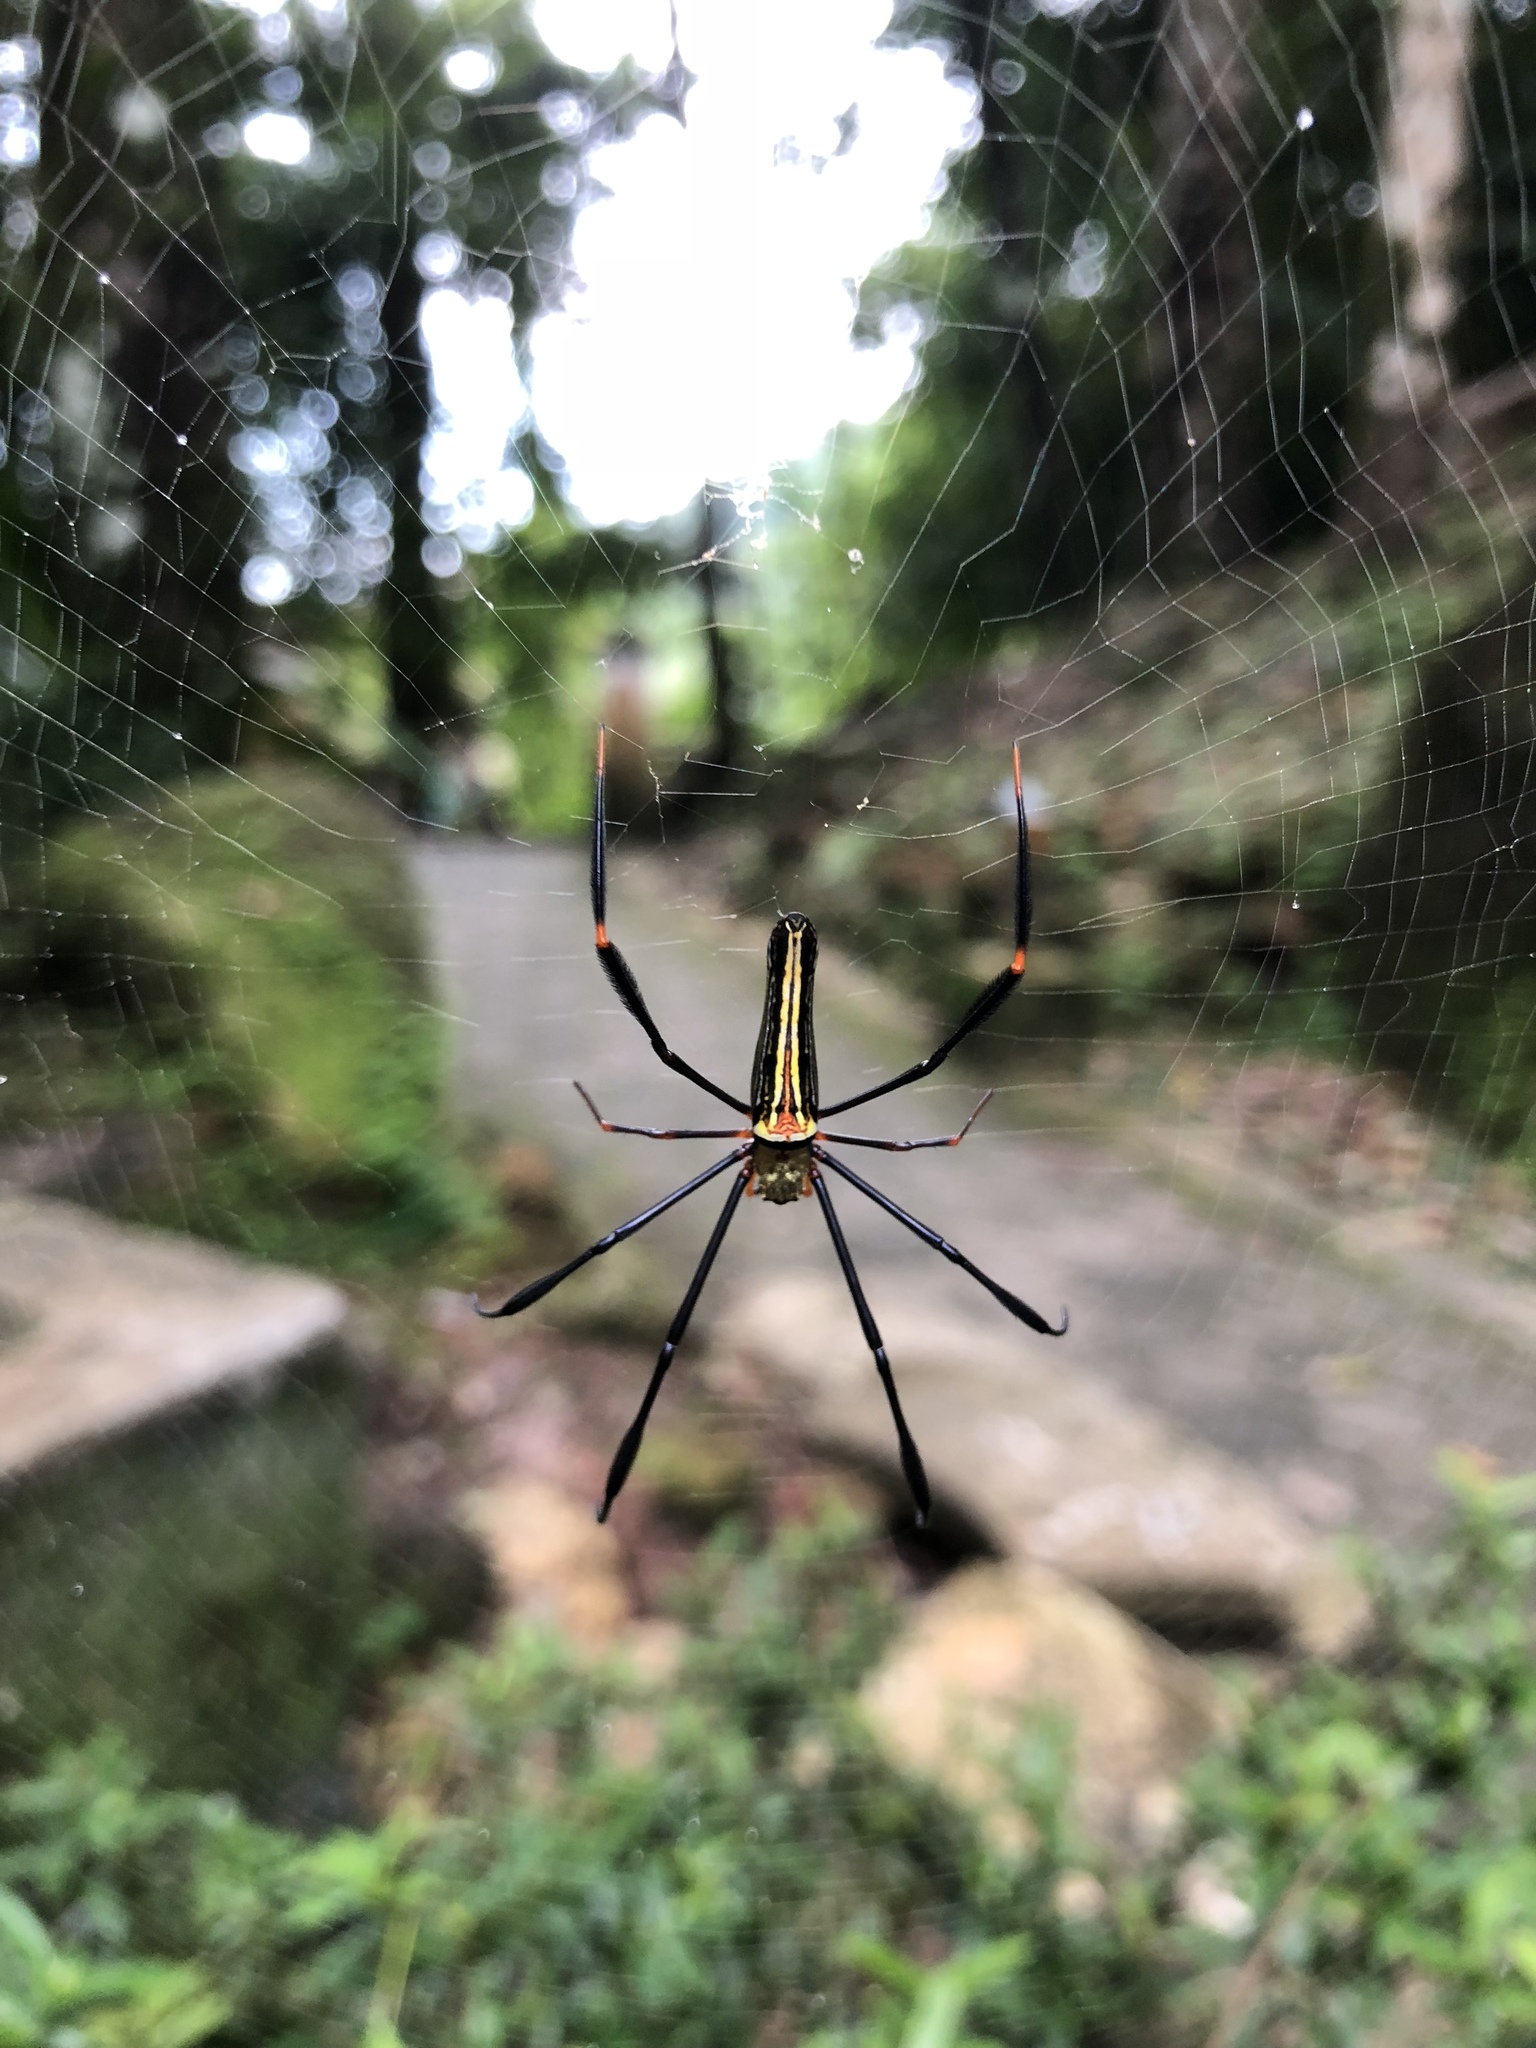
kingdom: Animalia
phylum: Arthropoda
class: Arachnida
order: Araneae
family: Araneidae
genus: Nephila
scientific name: Nephila pilipes
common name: Giant golden orb weaver
